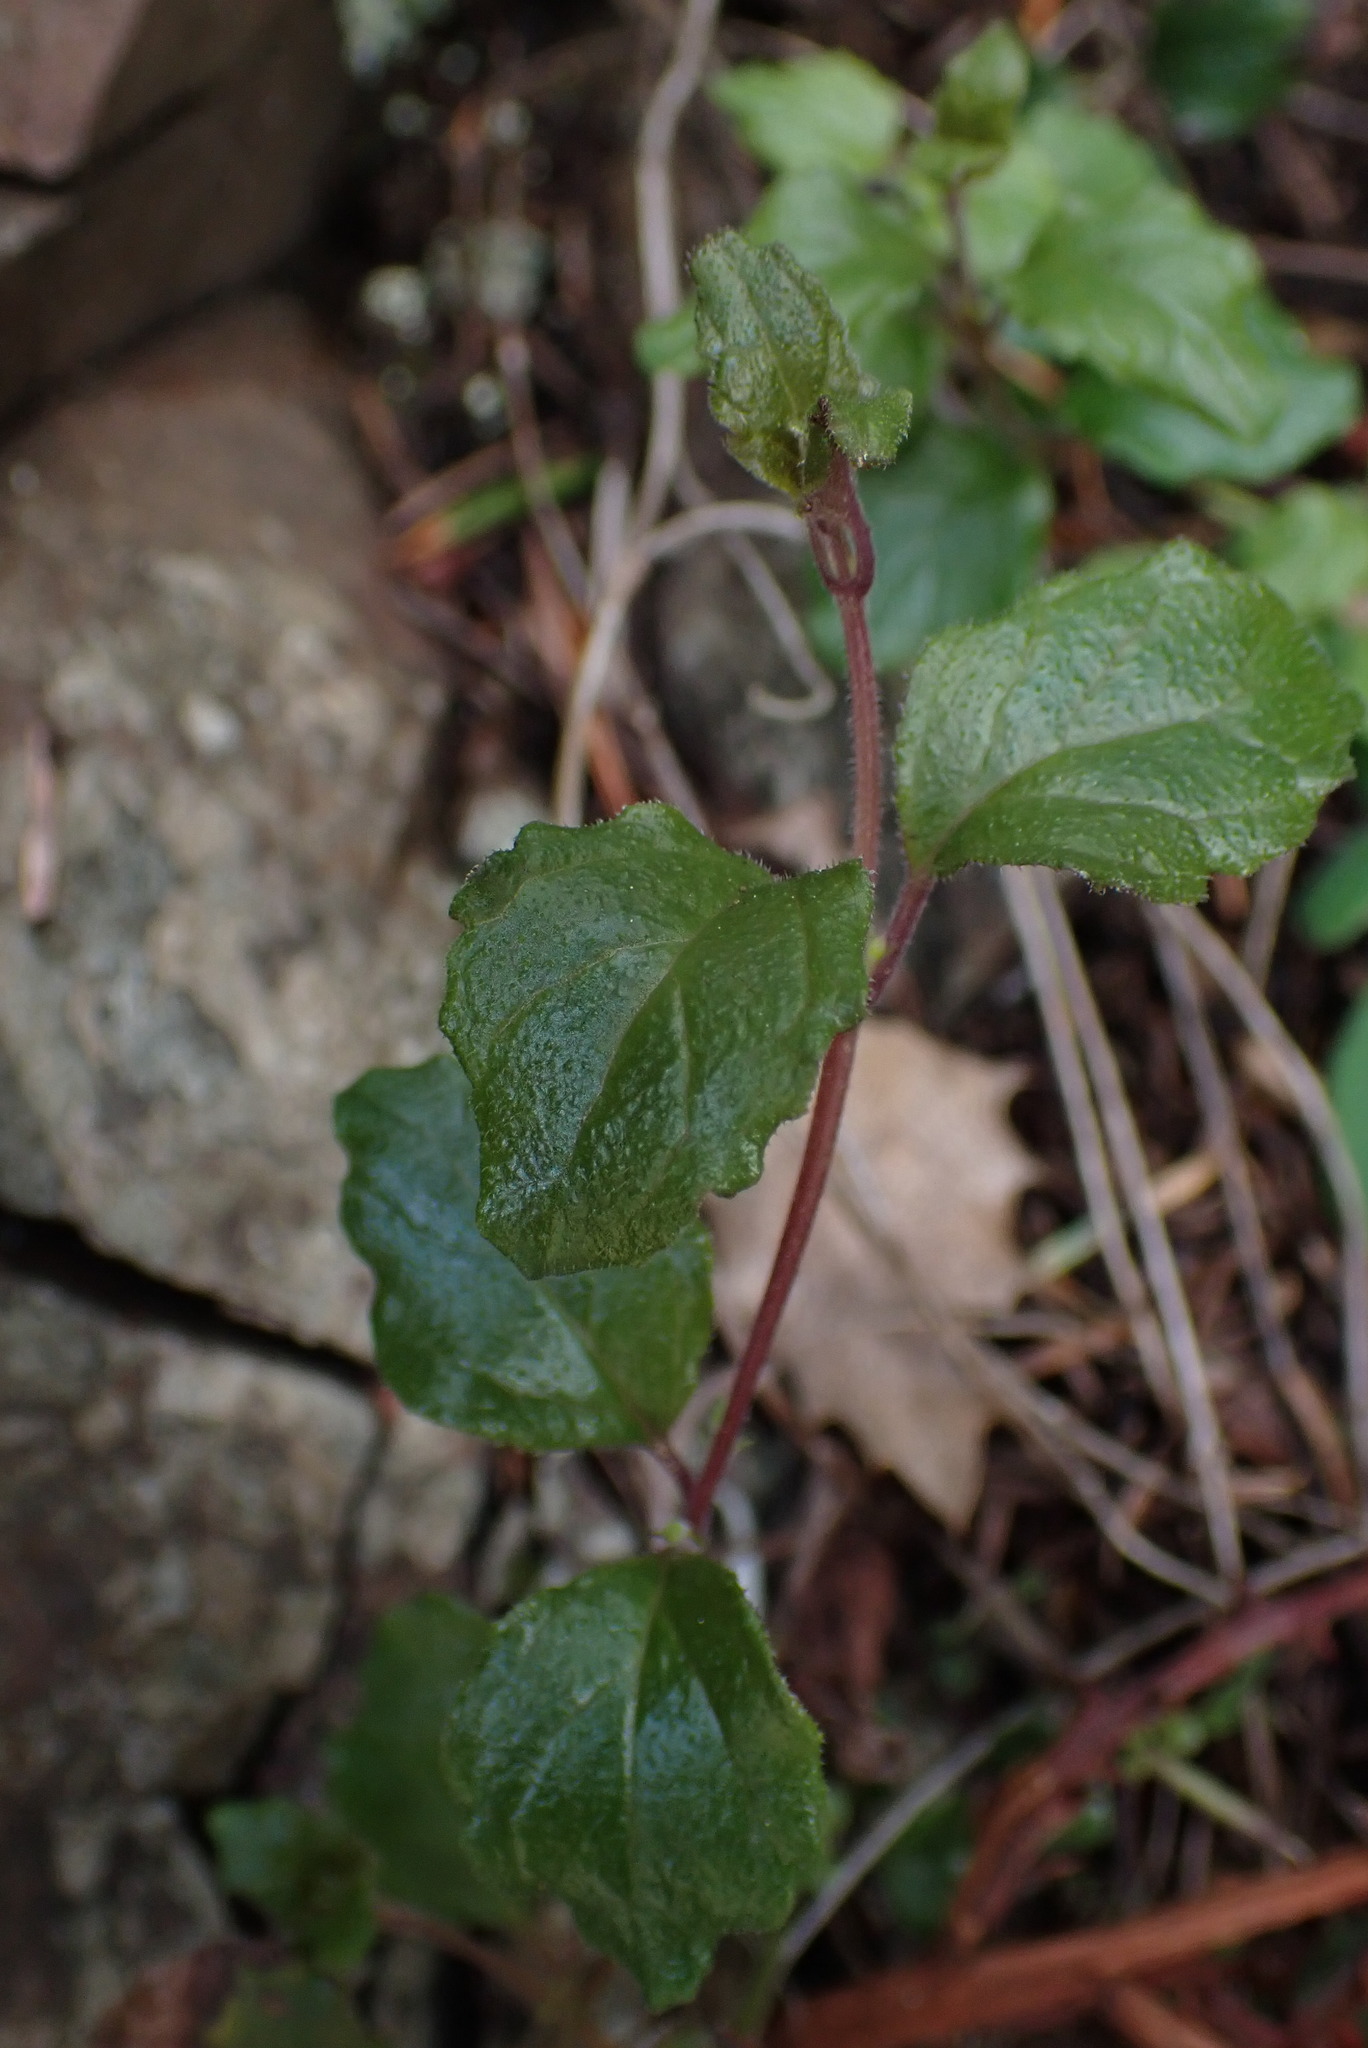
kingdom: Plantae
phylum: Tracheophyta
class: Magnoliopsida
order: Lamiales
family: Lamiaceae
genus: Micromeria
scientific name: Micromeria douglasii
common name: Yerba buena
